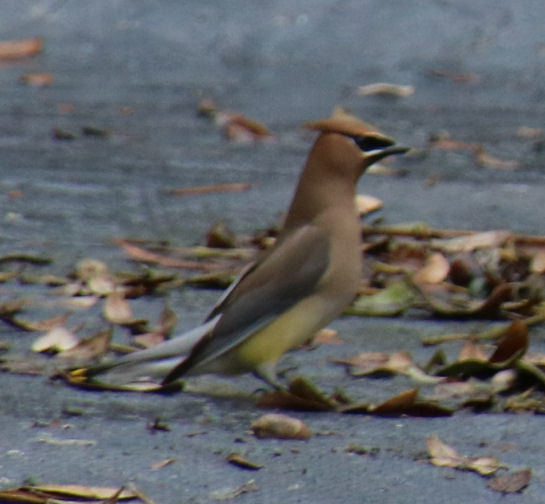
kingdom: Animalia
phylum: Chordata
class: Aves
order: Passeriformes
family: Bombycillidae
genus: Bombycilla
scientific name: Bombycilla cedrorum
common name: Cedar waxwing
